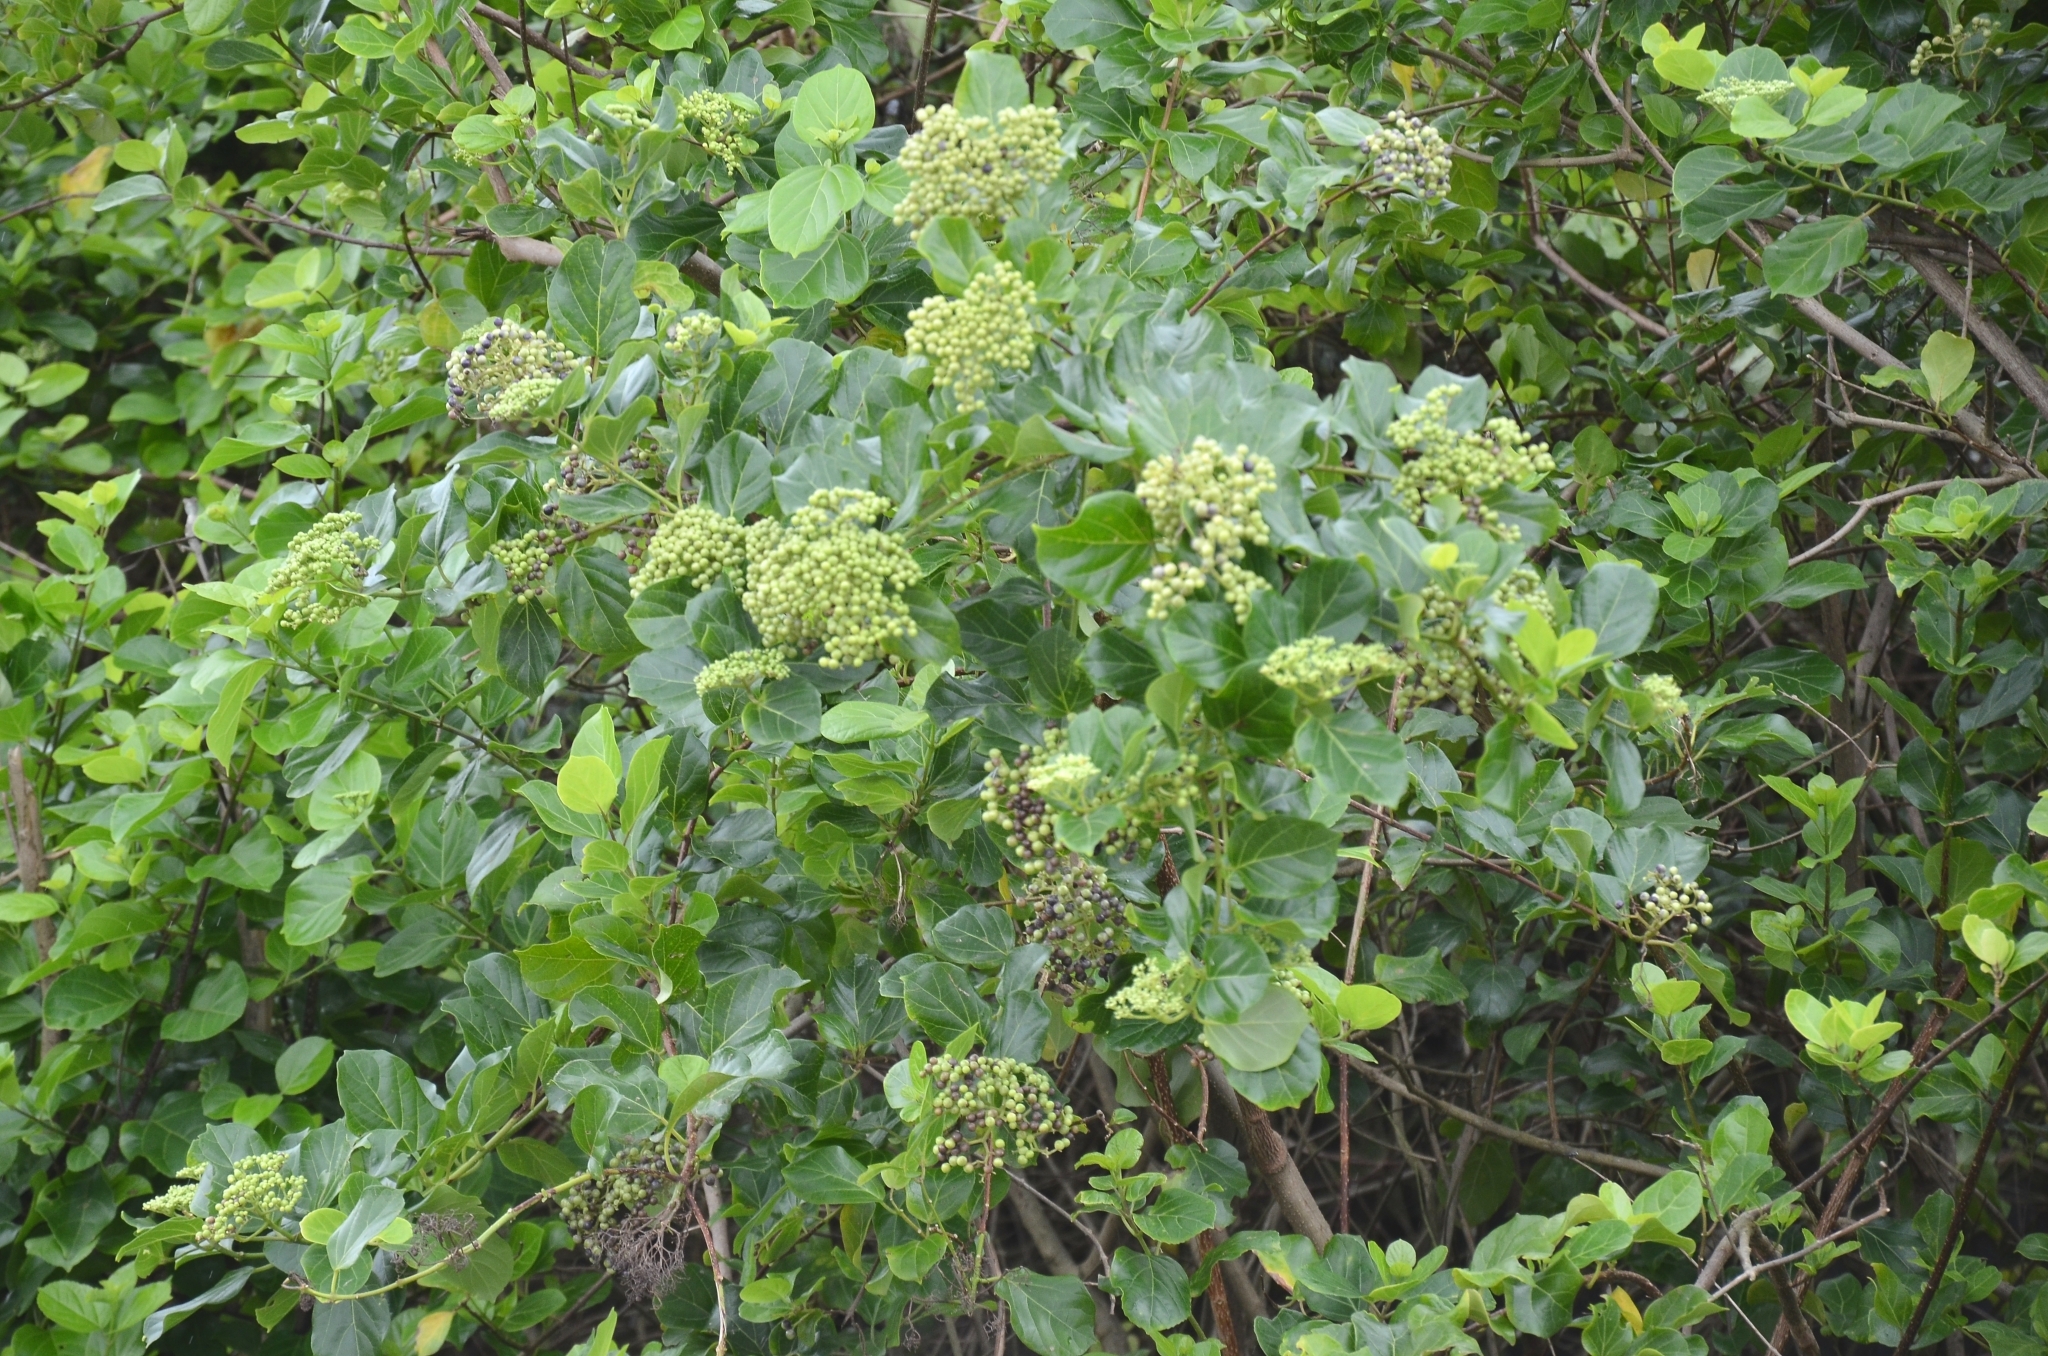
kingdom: Plantae
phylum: Tracheophyta
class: Magnoliopsida
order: Lamiales
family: Lamiaceae
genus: Premna
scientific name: Premna serratifolia
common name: Bastard guelder
